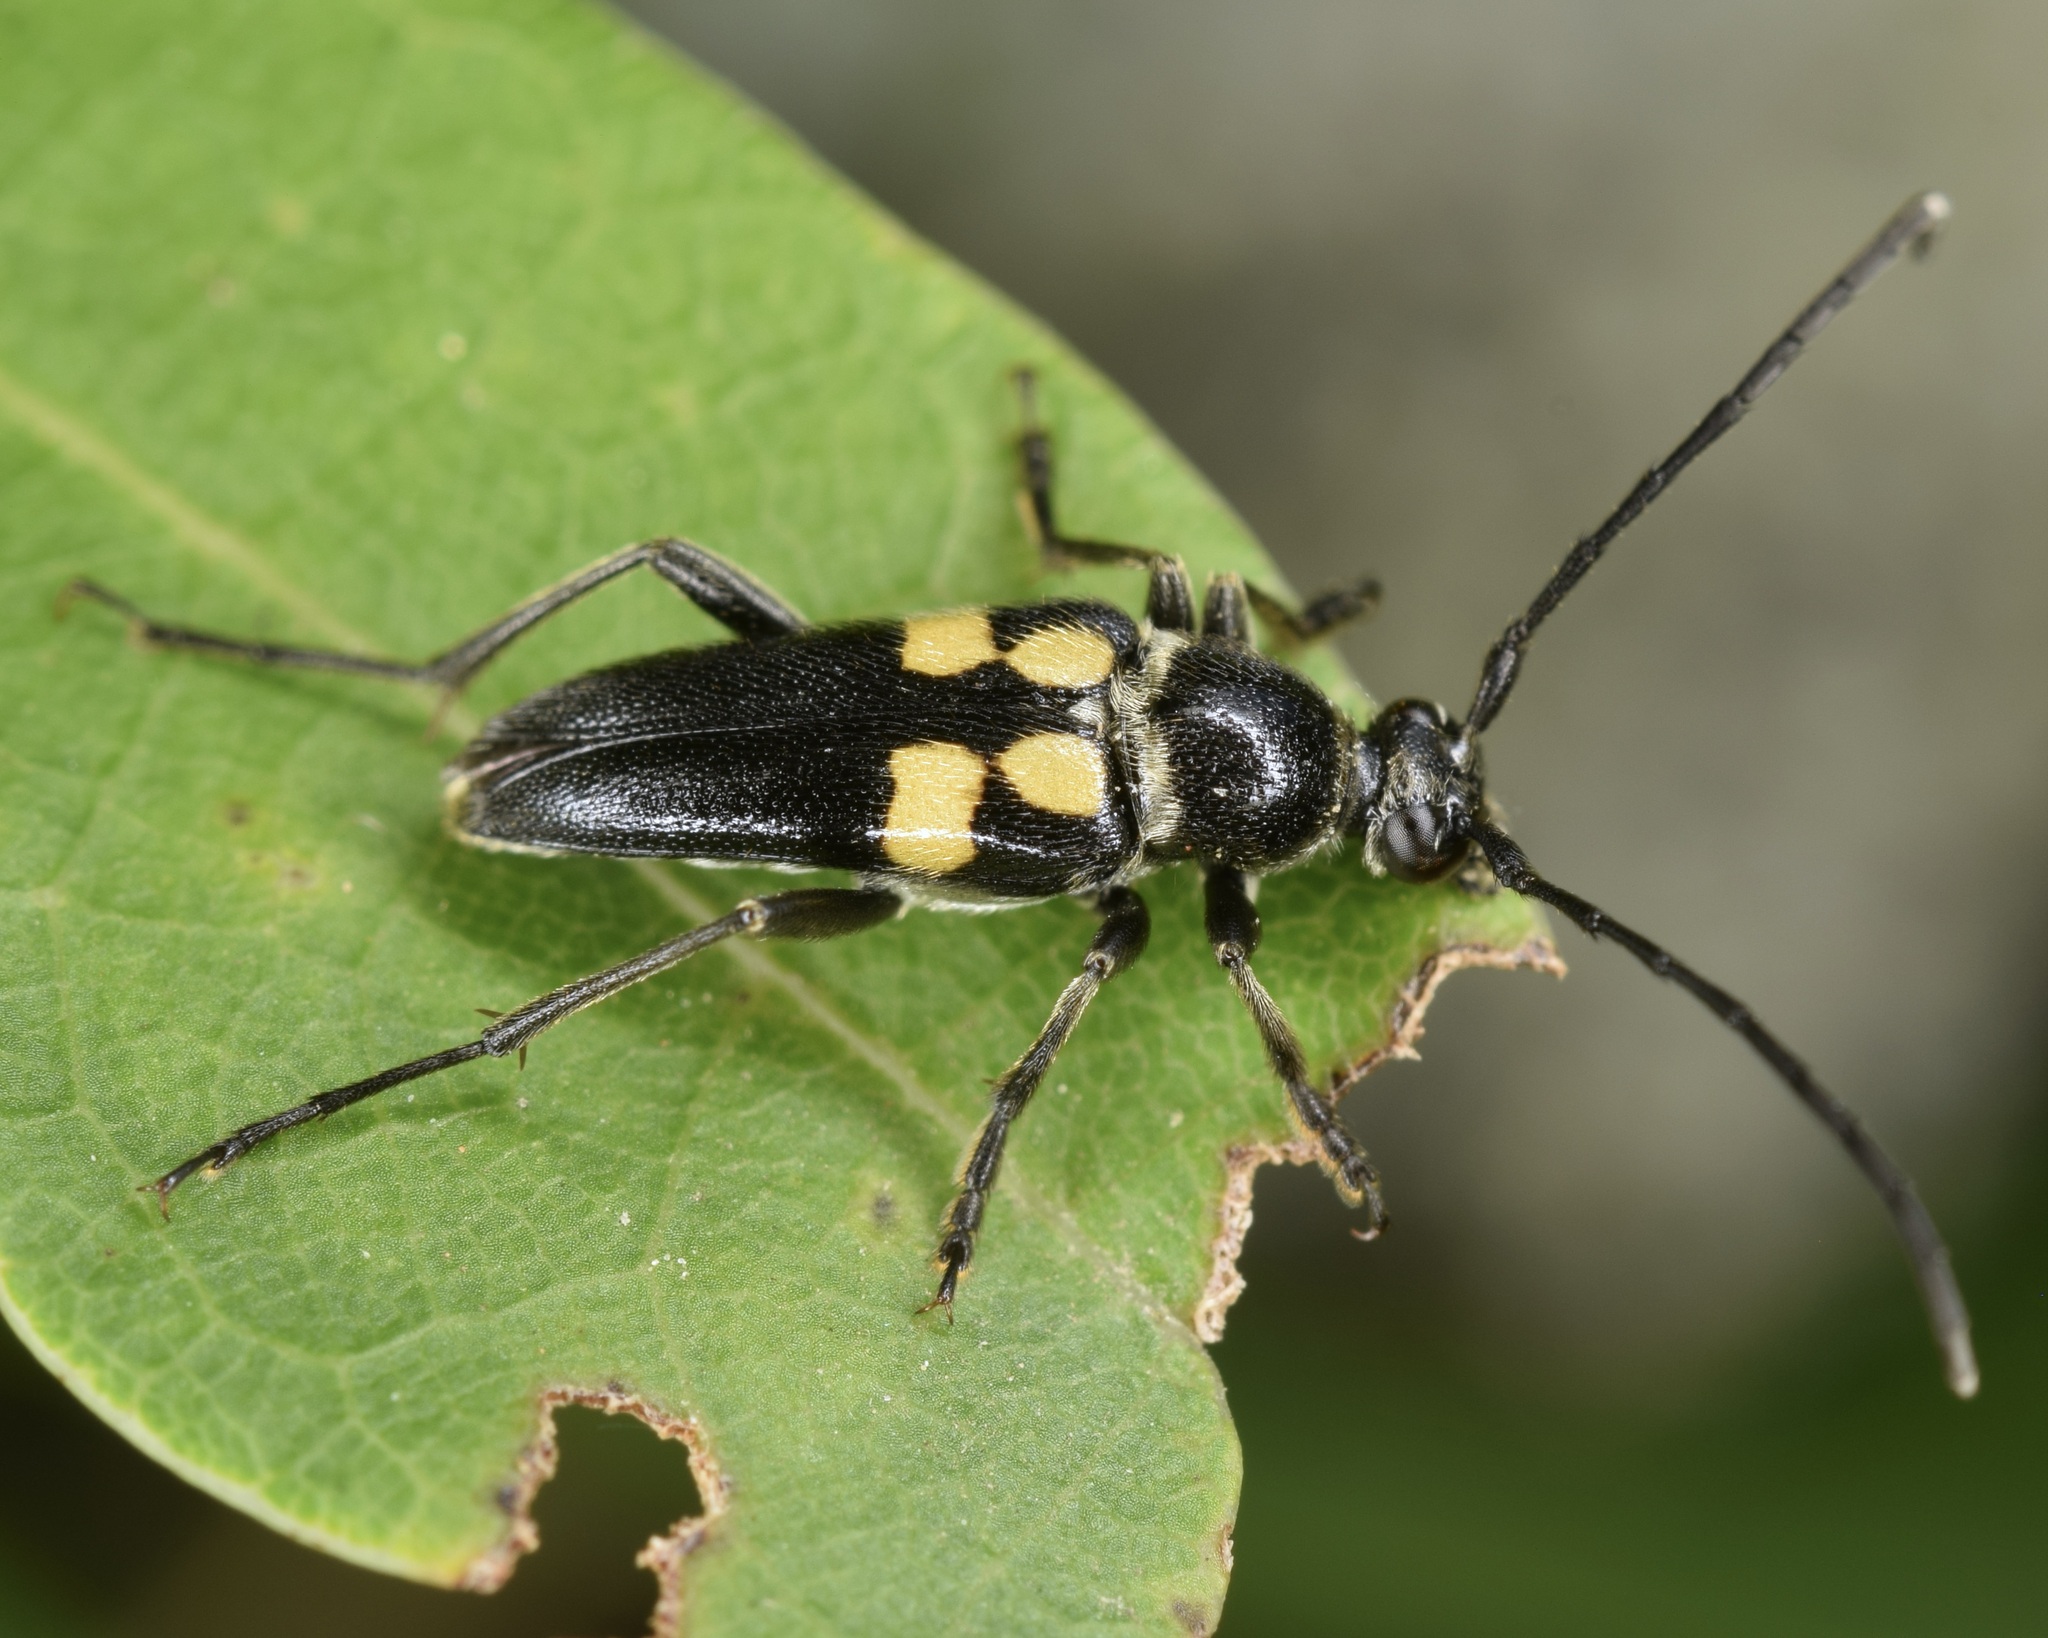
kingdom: Animalia
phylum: Arthropoda
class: Insecta
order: Coleoptera
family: Cerambycidae
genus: Typocerus
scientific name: Typocerus lunulatus
